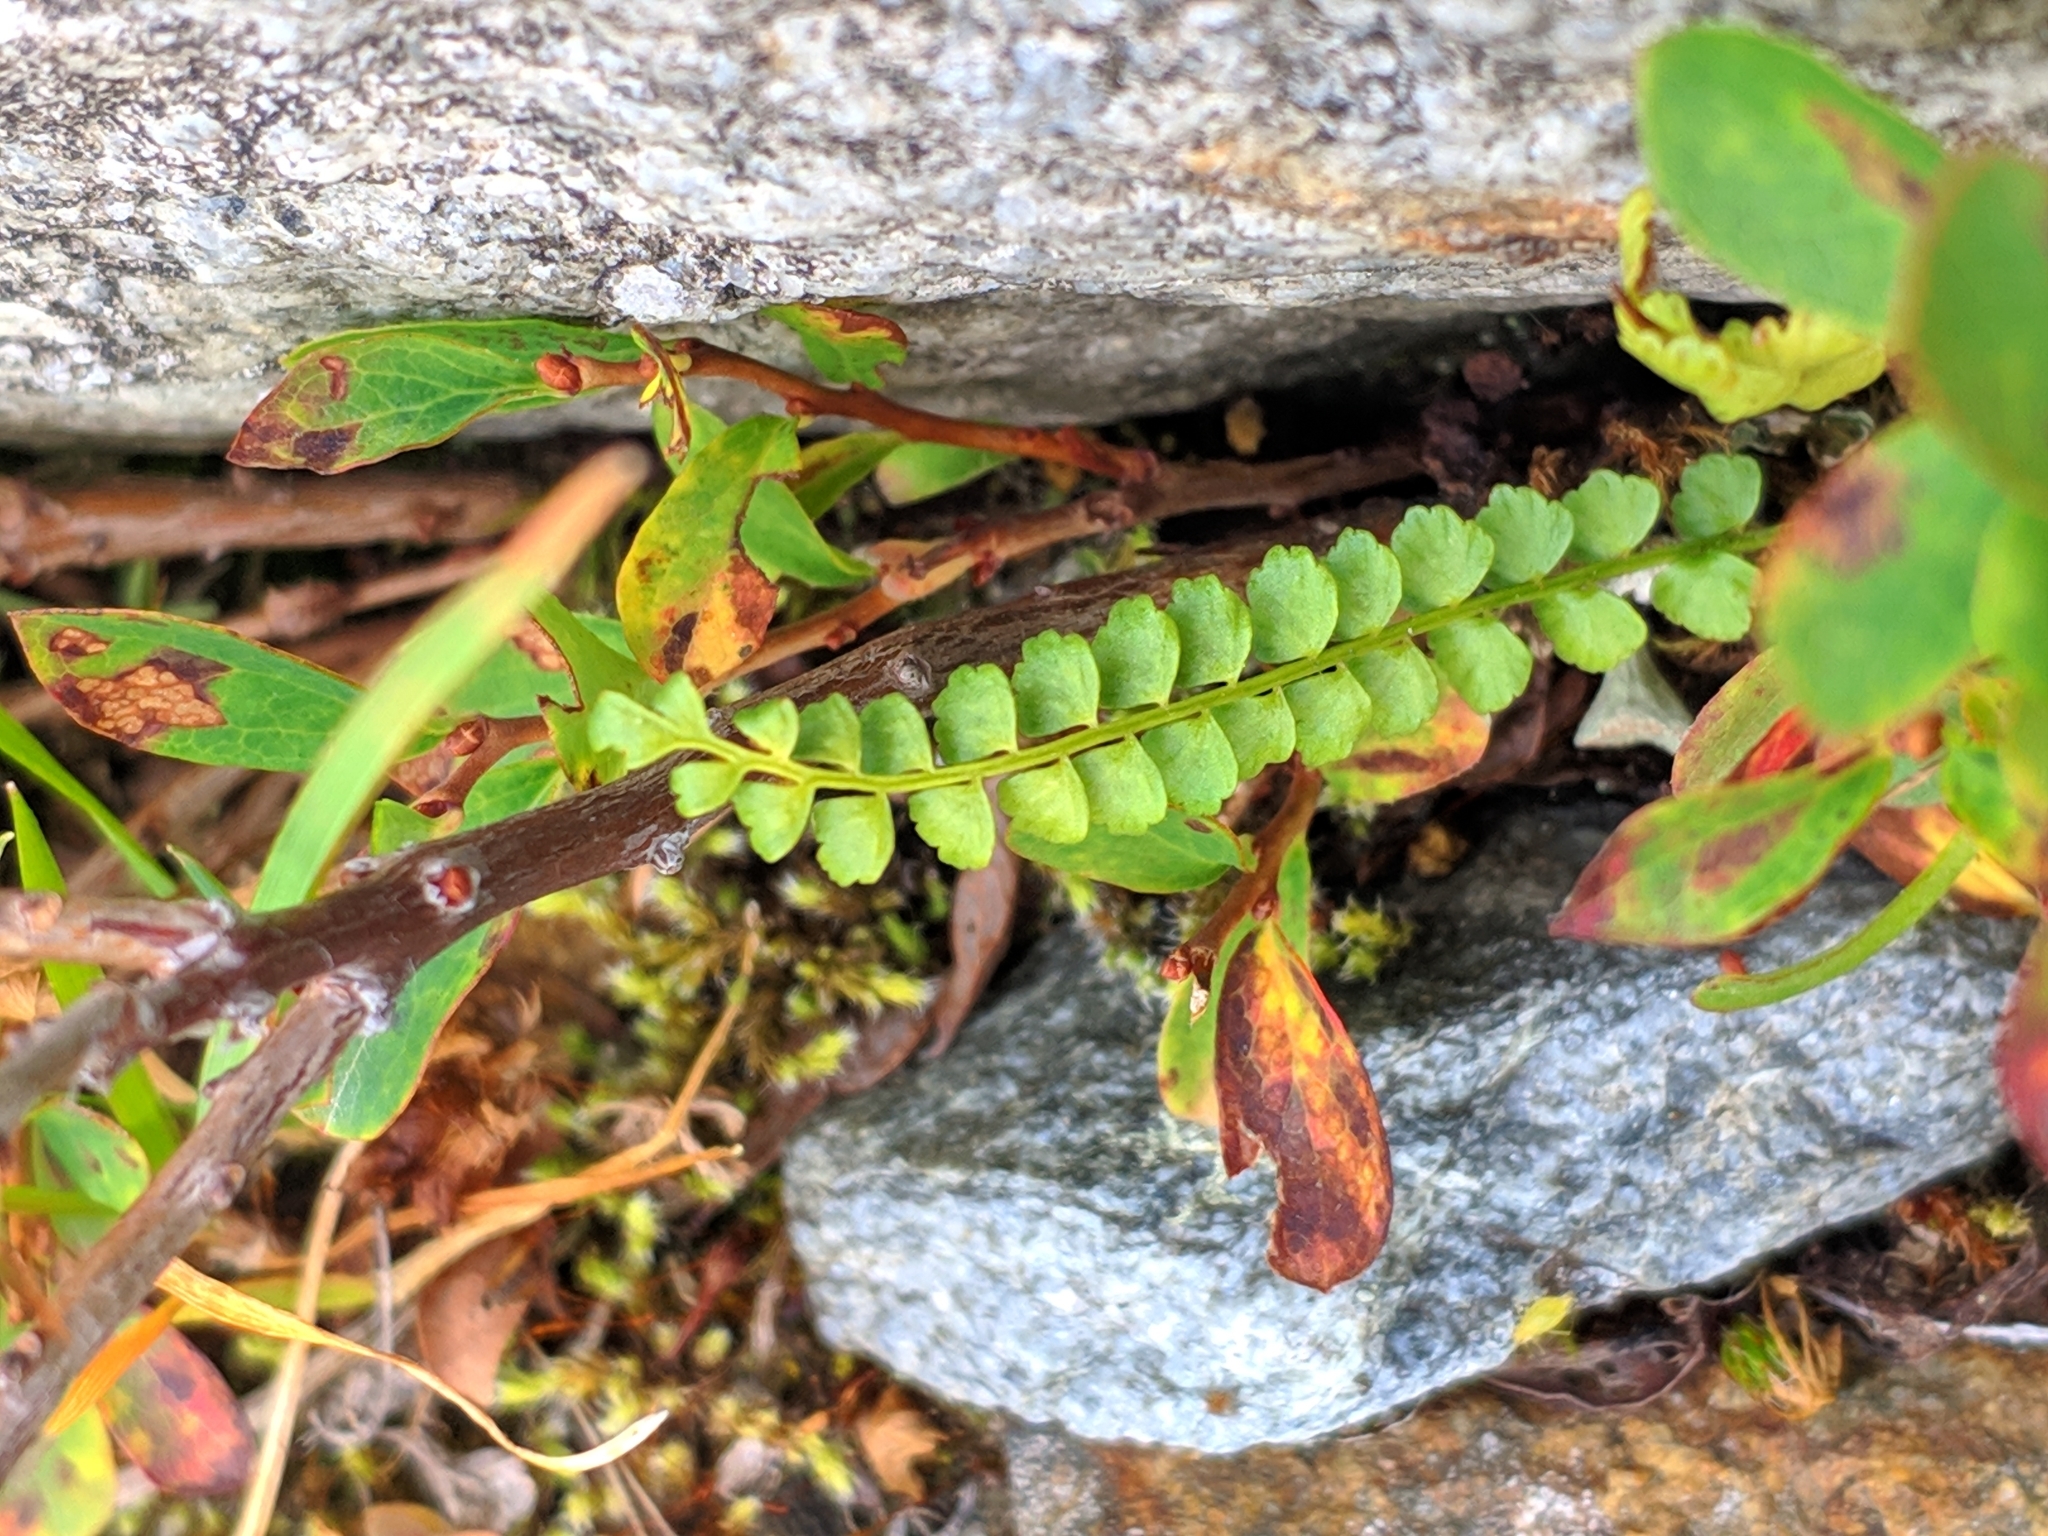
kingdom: Plantae
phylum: Tracheophyta
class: Polypodiopsida
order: Polypodiales
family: Aspleniaceae
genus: Asplenium
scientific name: Asplenium viride
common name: Green spleenwort
